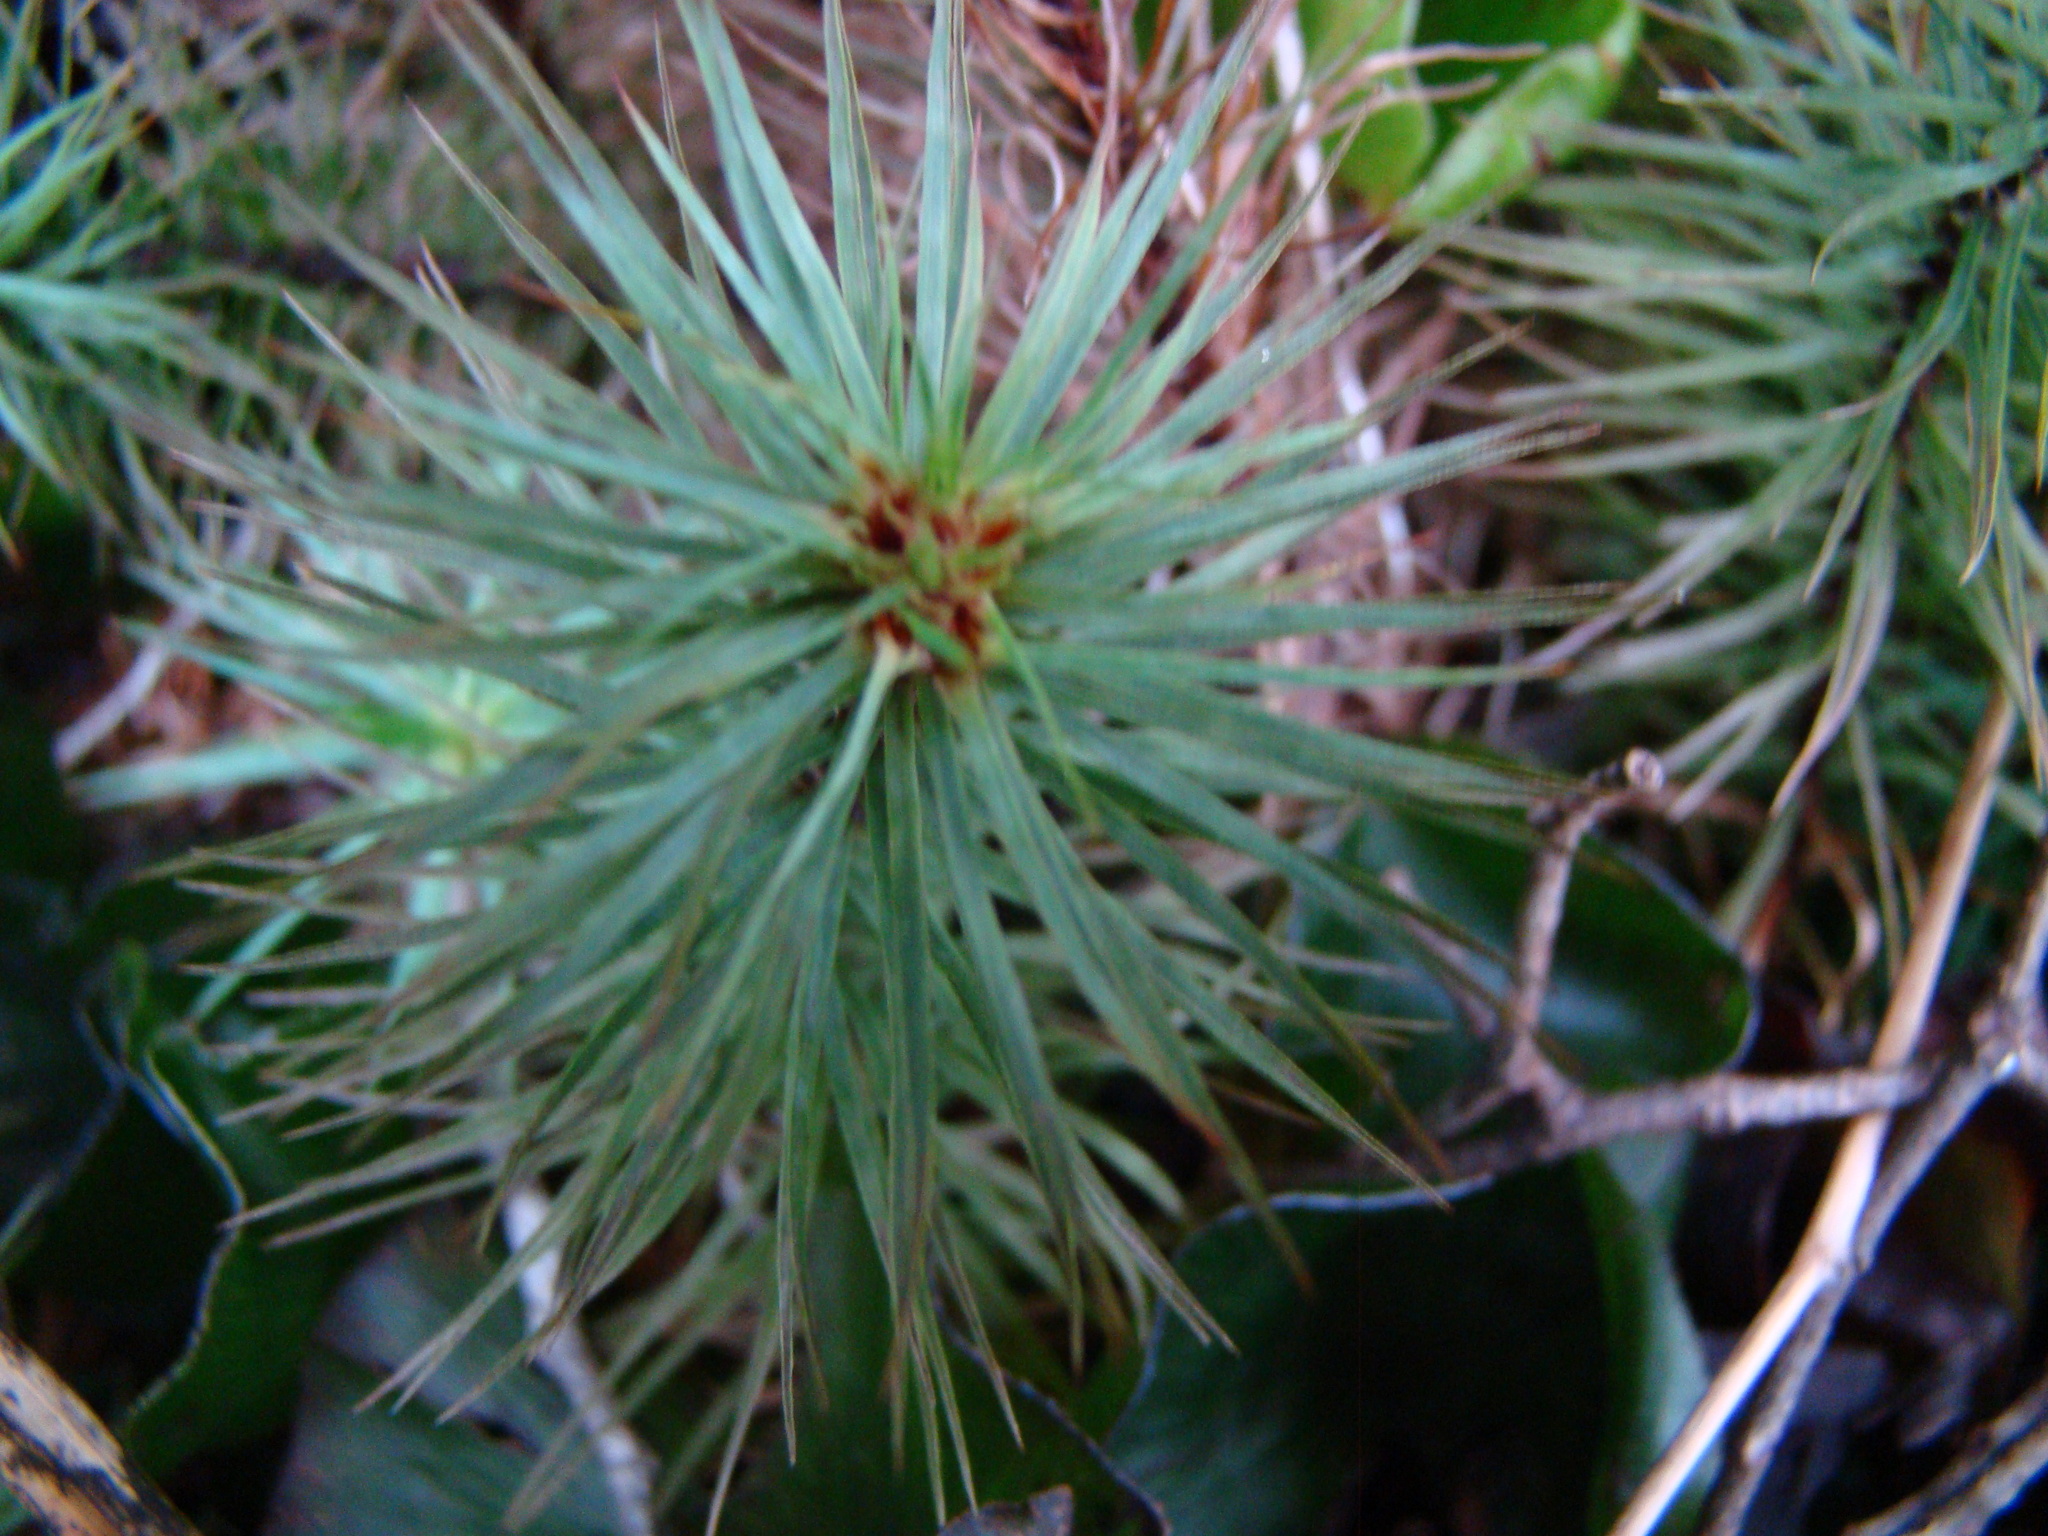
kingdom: Plantae
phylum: Bryophyta
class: Polytrichopsida
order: Polytrichales
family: Polytrichaceae
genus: Dawsonia
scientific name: Dawsonia superba
